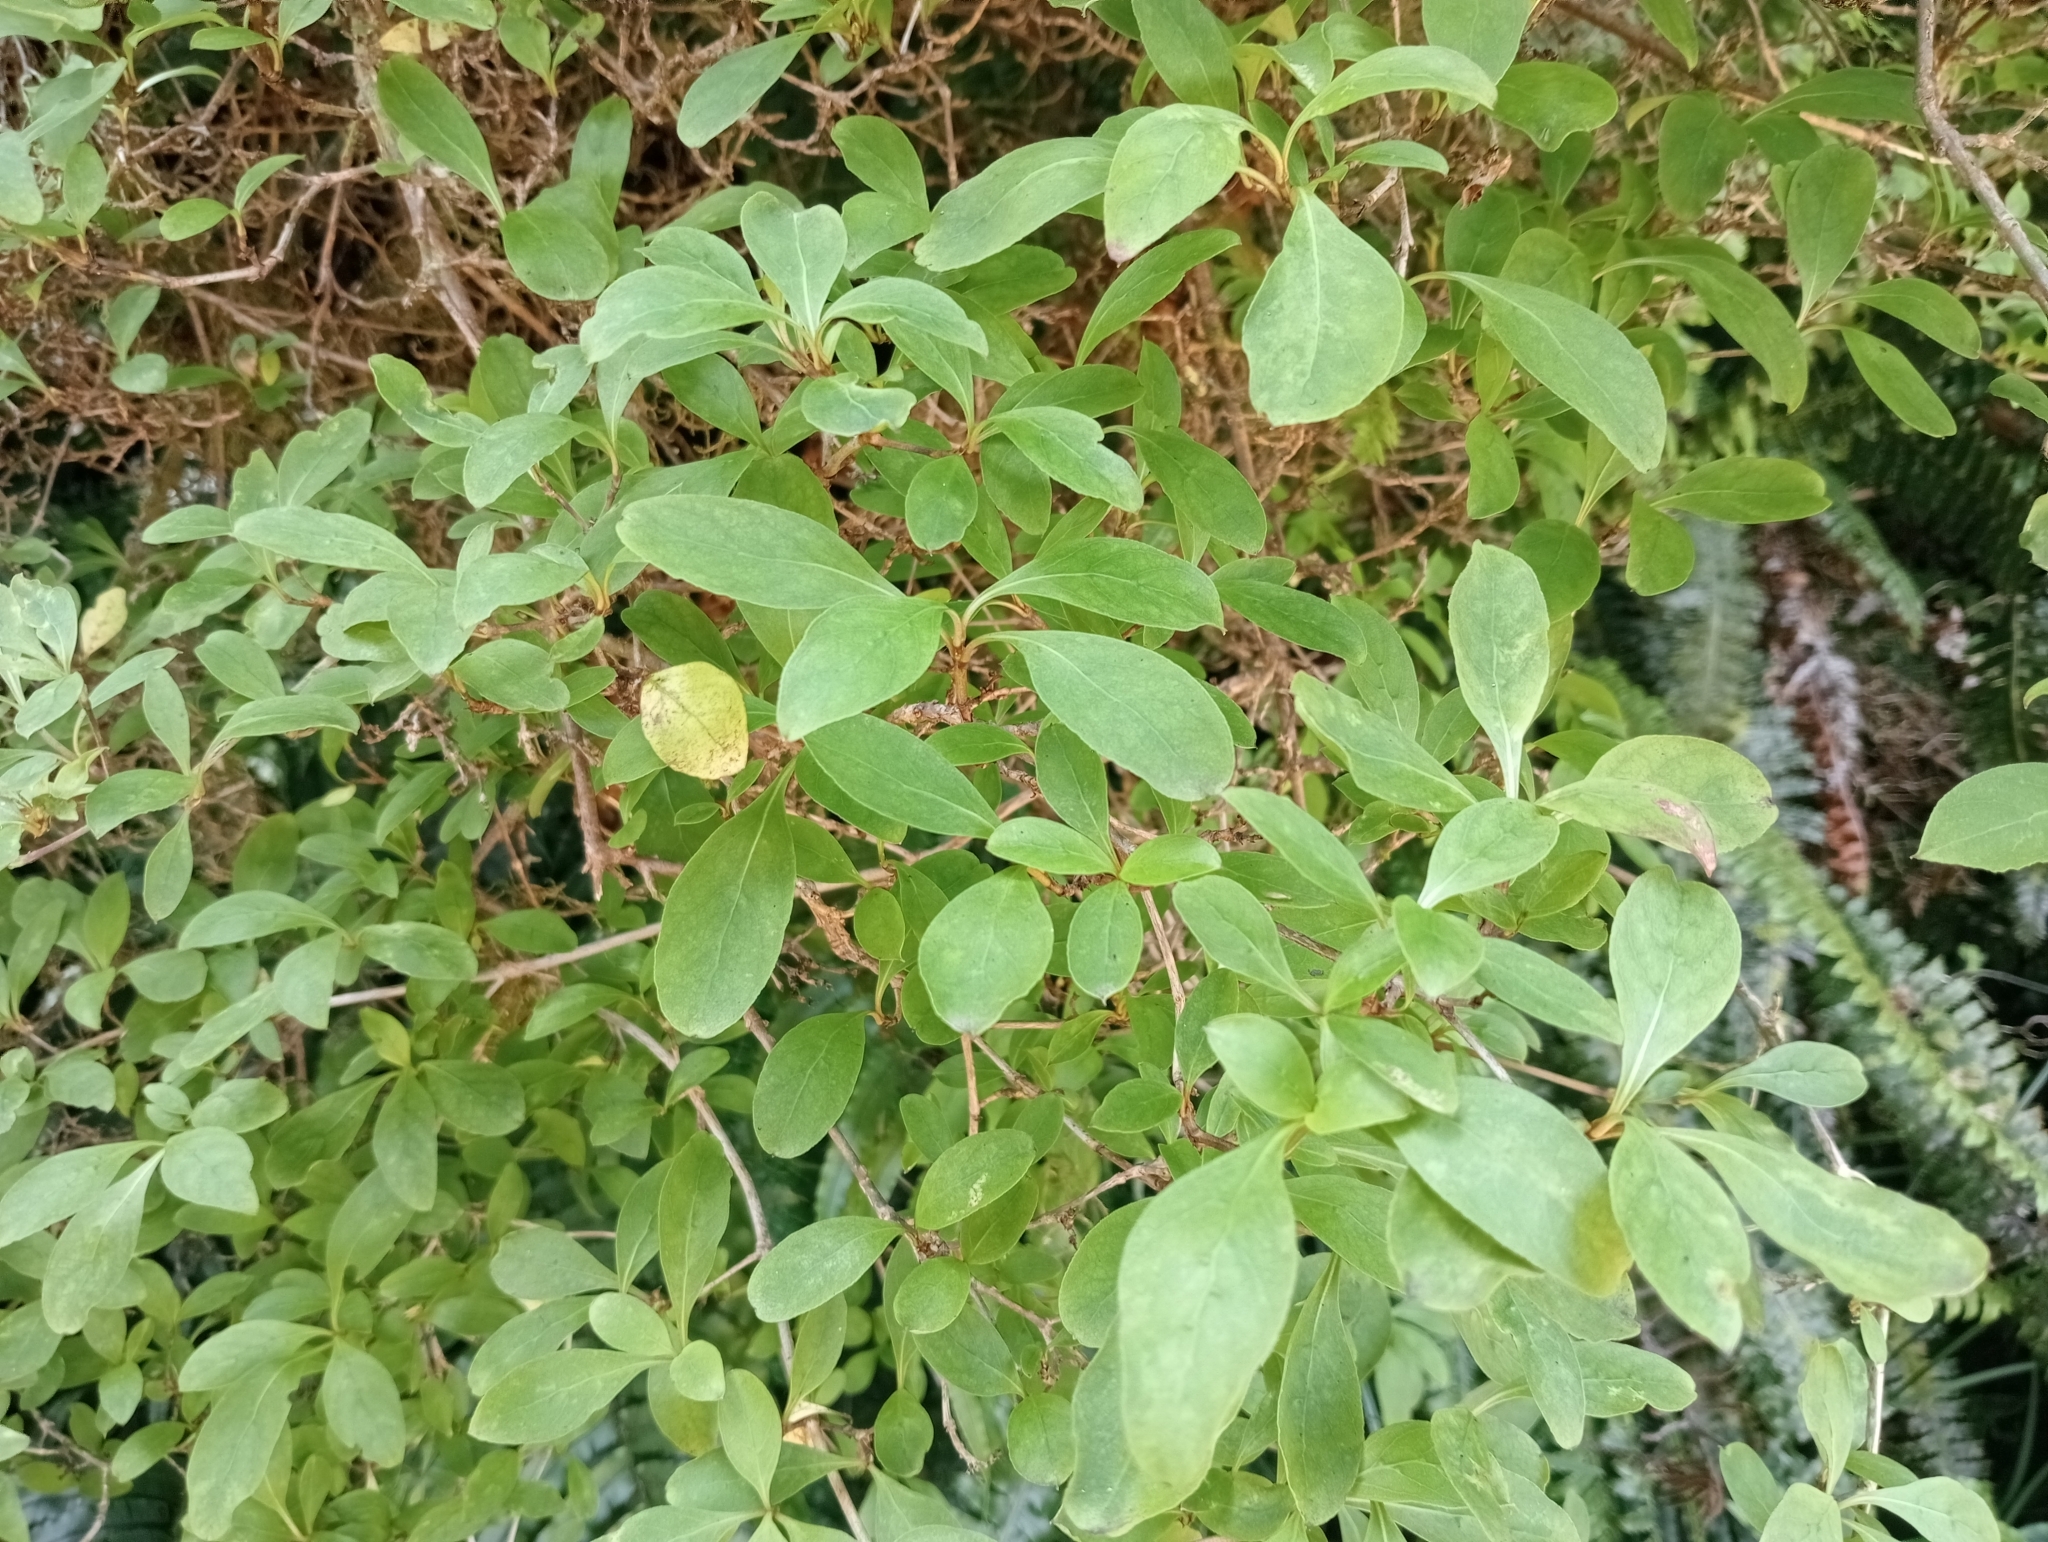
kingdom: Plantae
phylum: Tracheophyta
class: Magnoliopsida
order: Gentianales
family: Rubiaceae
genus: Coprosma
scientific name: Coprosma foetidissima
